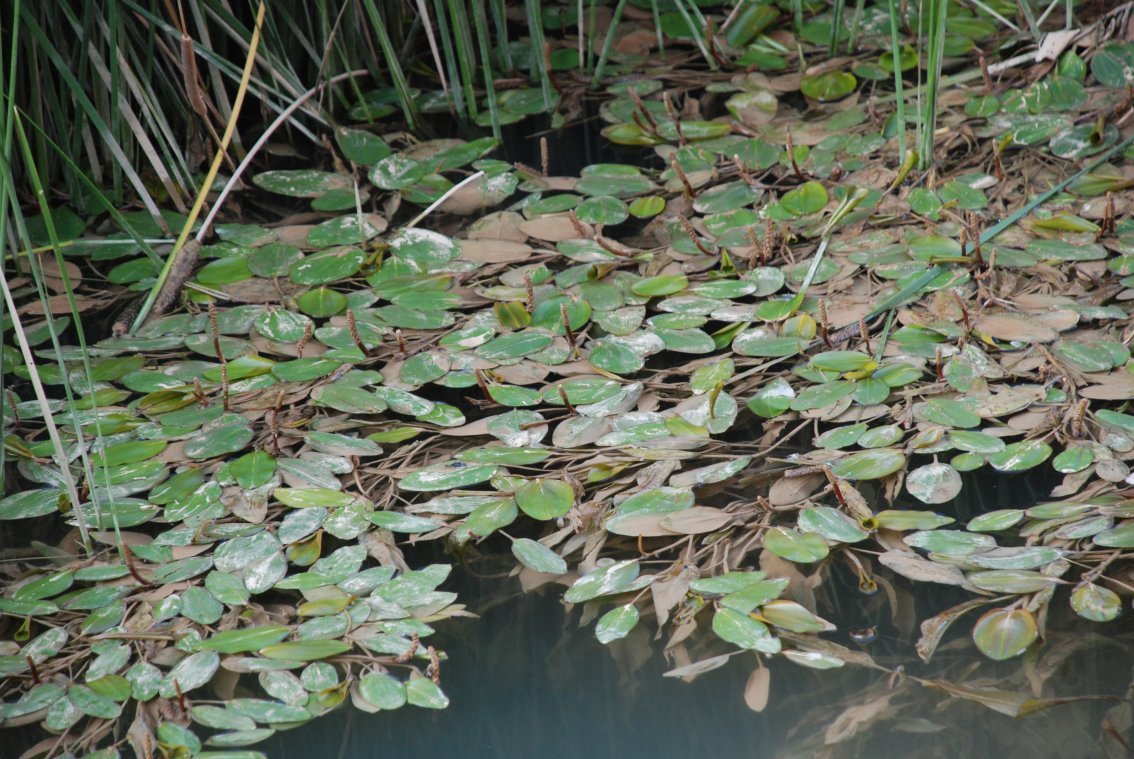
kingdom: Plantae
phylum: Tracheophyta
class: Liliopsida
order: Alismatales
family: Potamogetonaceae
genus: Potamogeton
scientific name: Potamogeton nodosus
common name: Loddon pondweed
